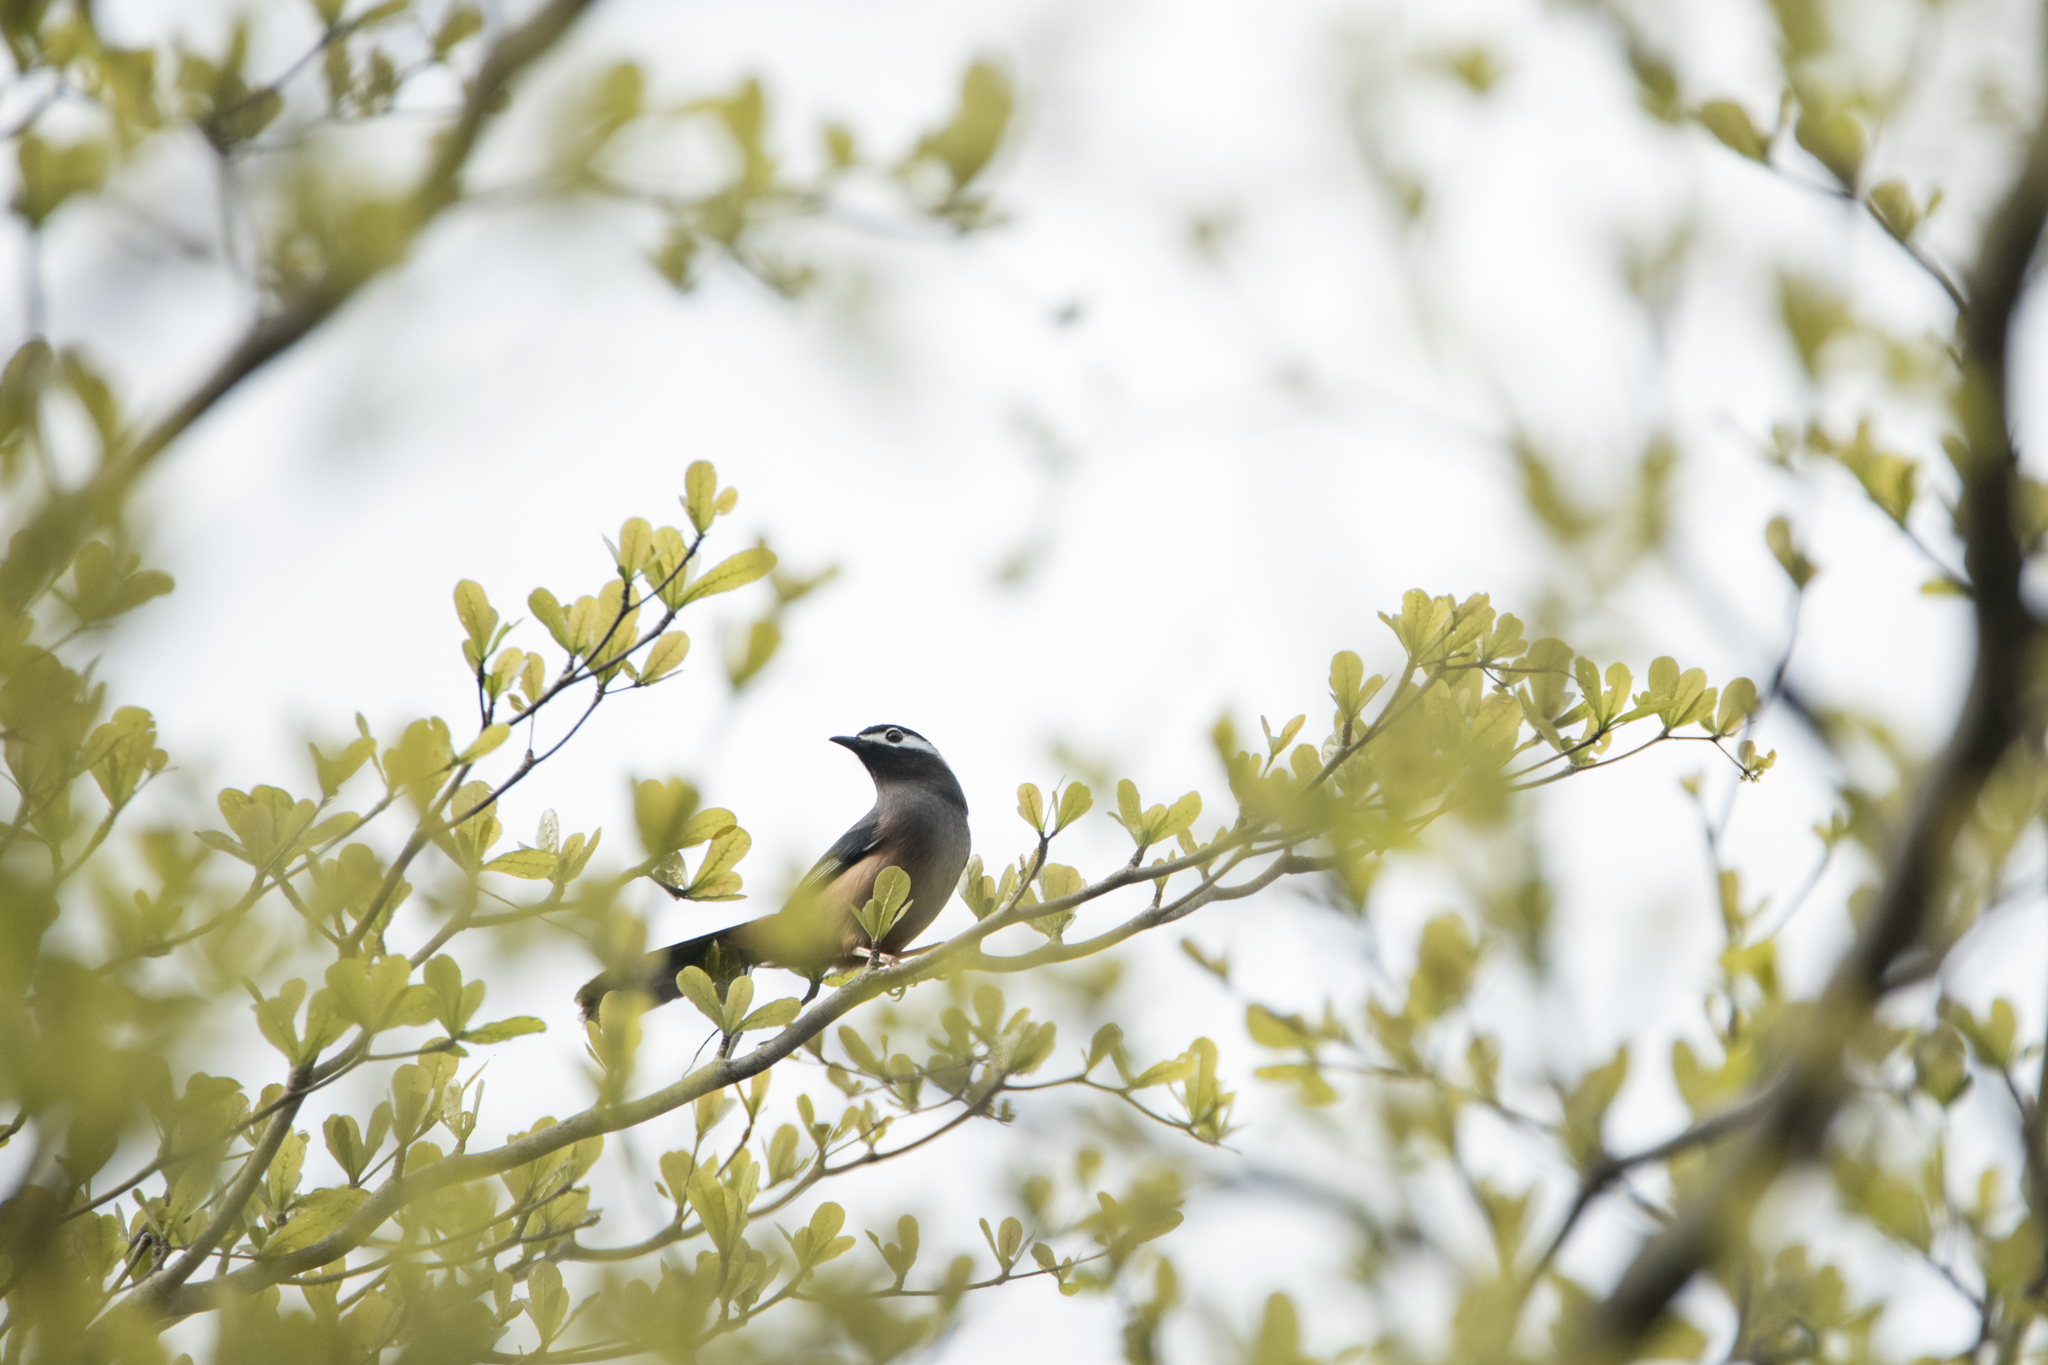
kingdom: Animalia
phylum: Chordata
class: Aves
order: Passeriformes
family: Leiothrichidae
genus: Heterophasia
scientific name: Heterophasia auricularis
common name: White-eared sibia
